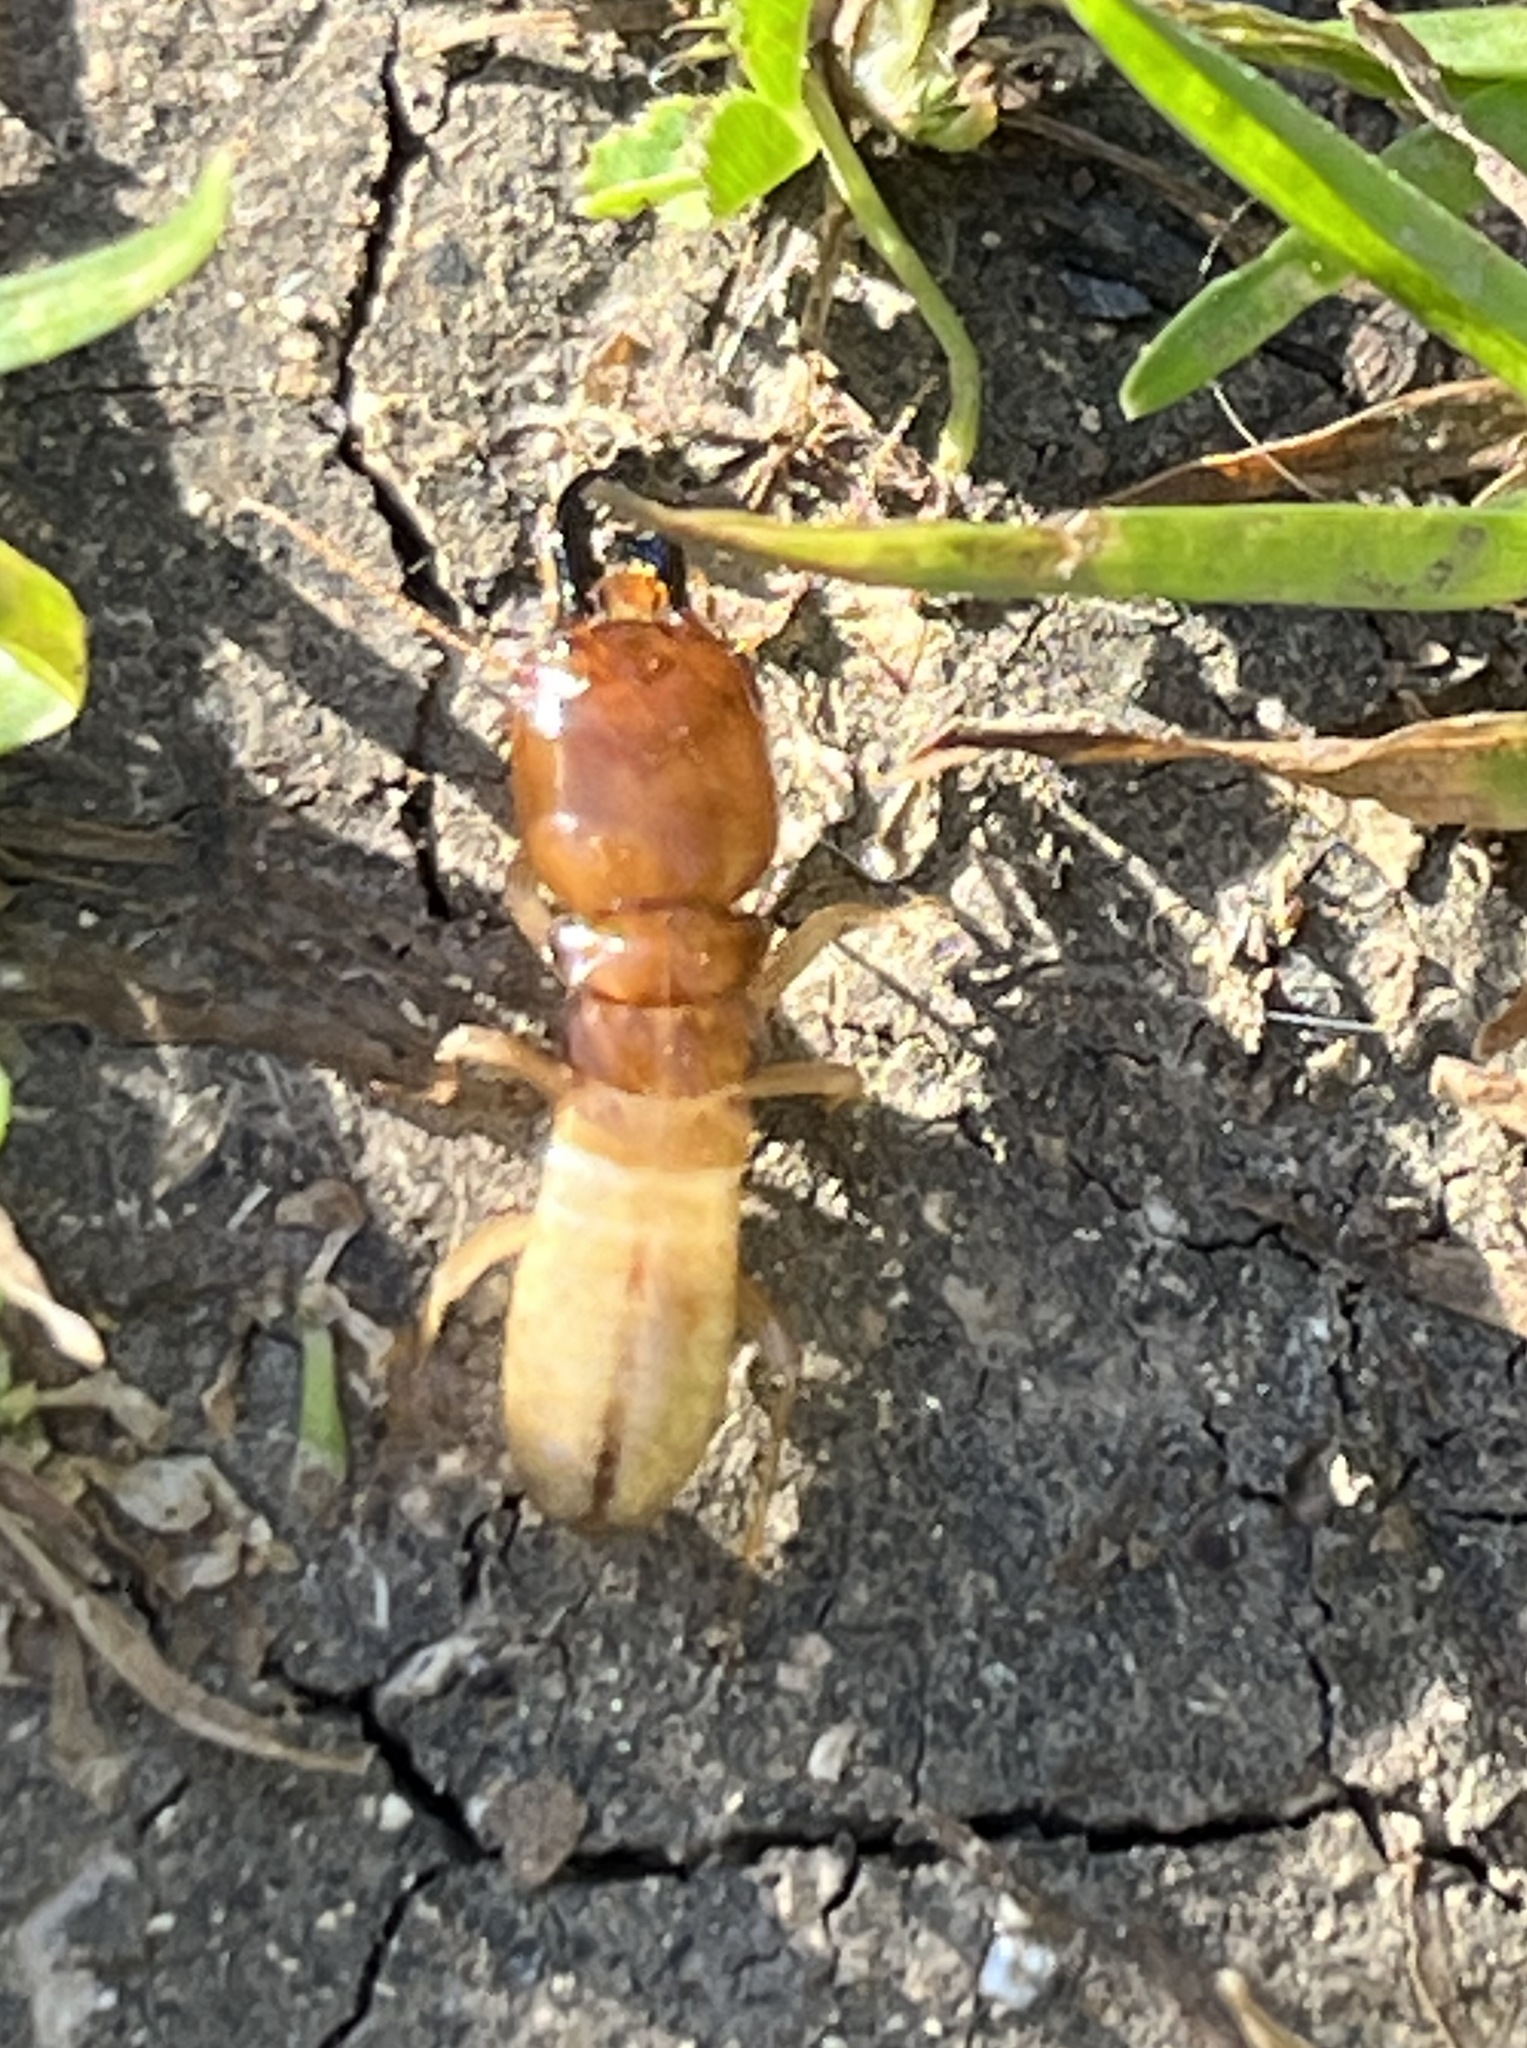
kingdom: Animalia
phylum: Arthropoda
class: Insecta
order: Blattodea
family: Hodotermitidae
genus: Anacanthotermes
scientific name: Anacanthotermes ubachi
